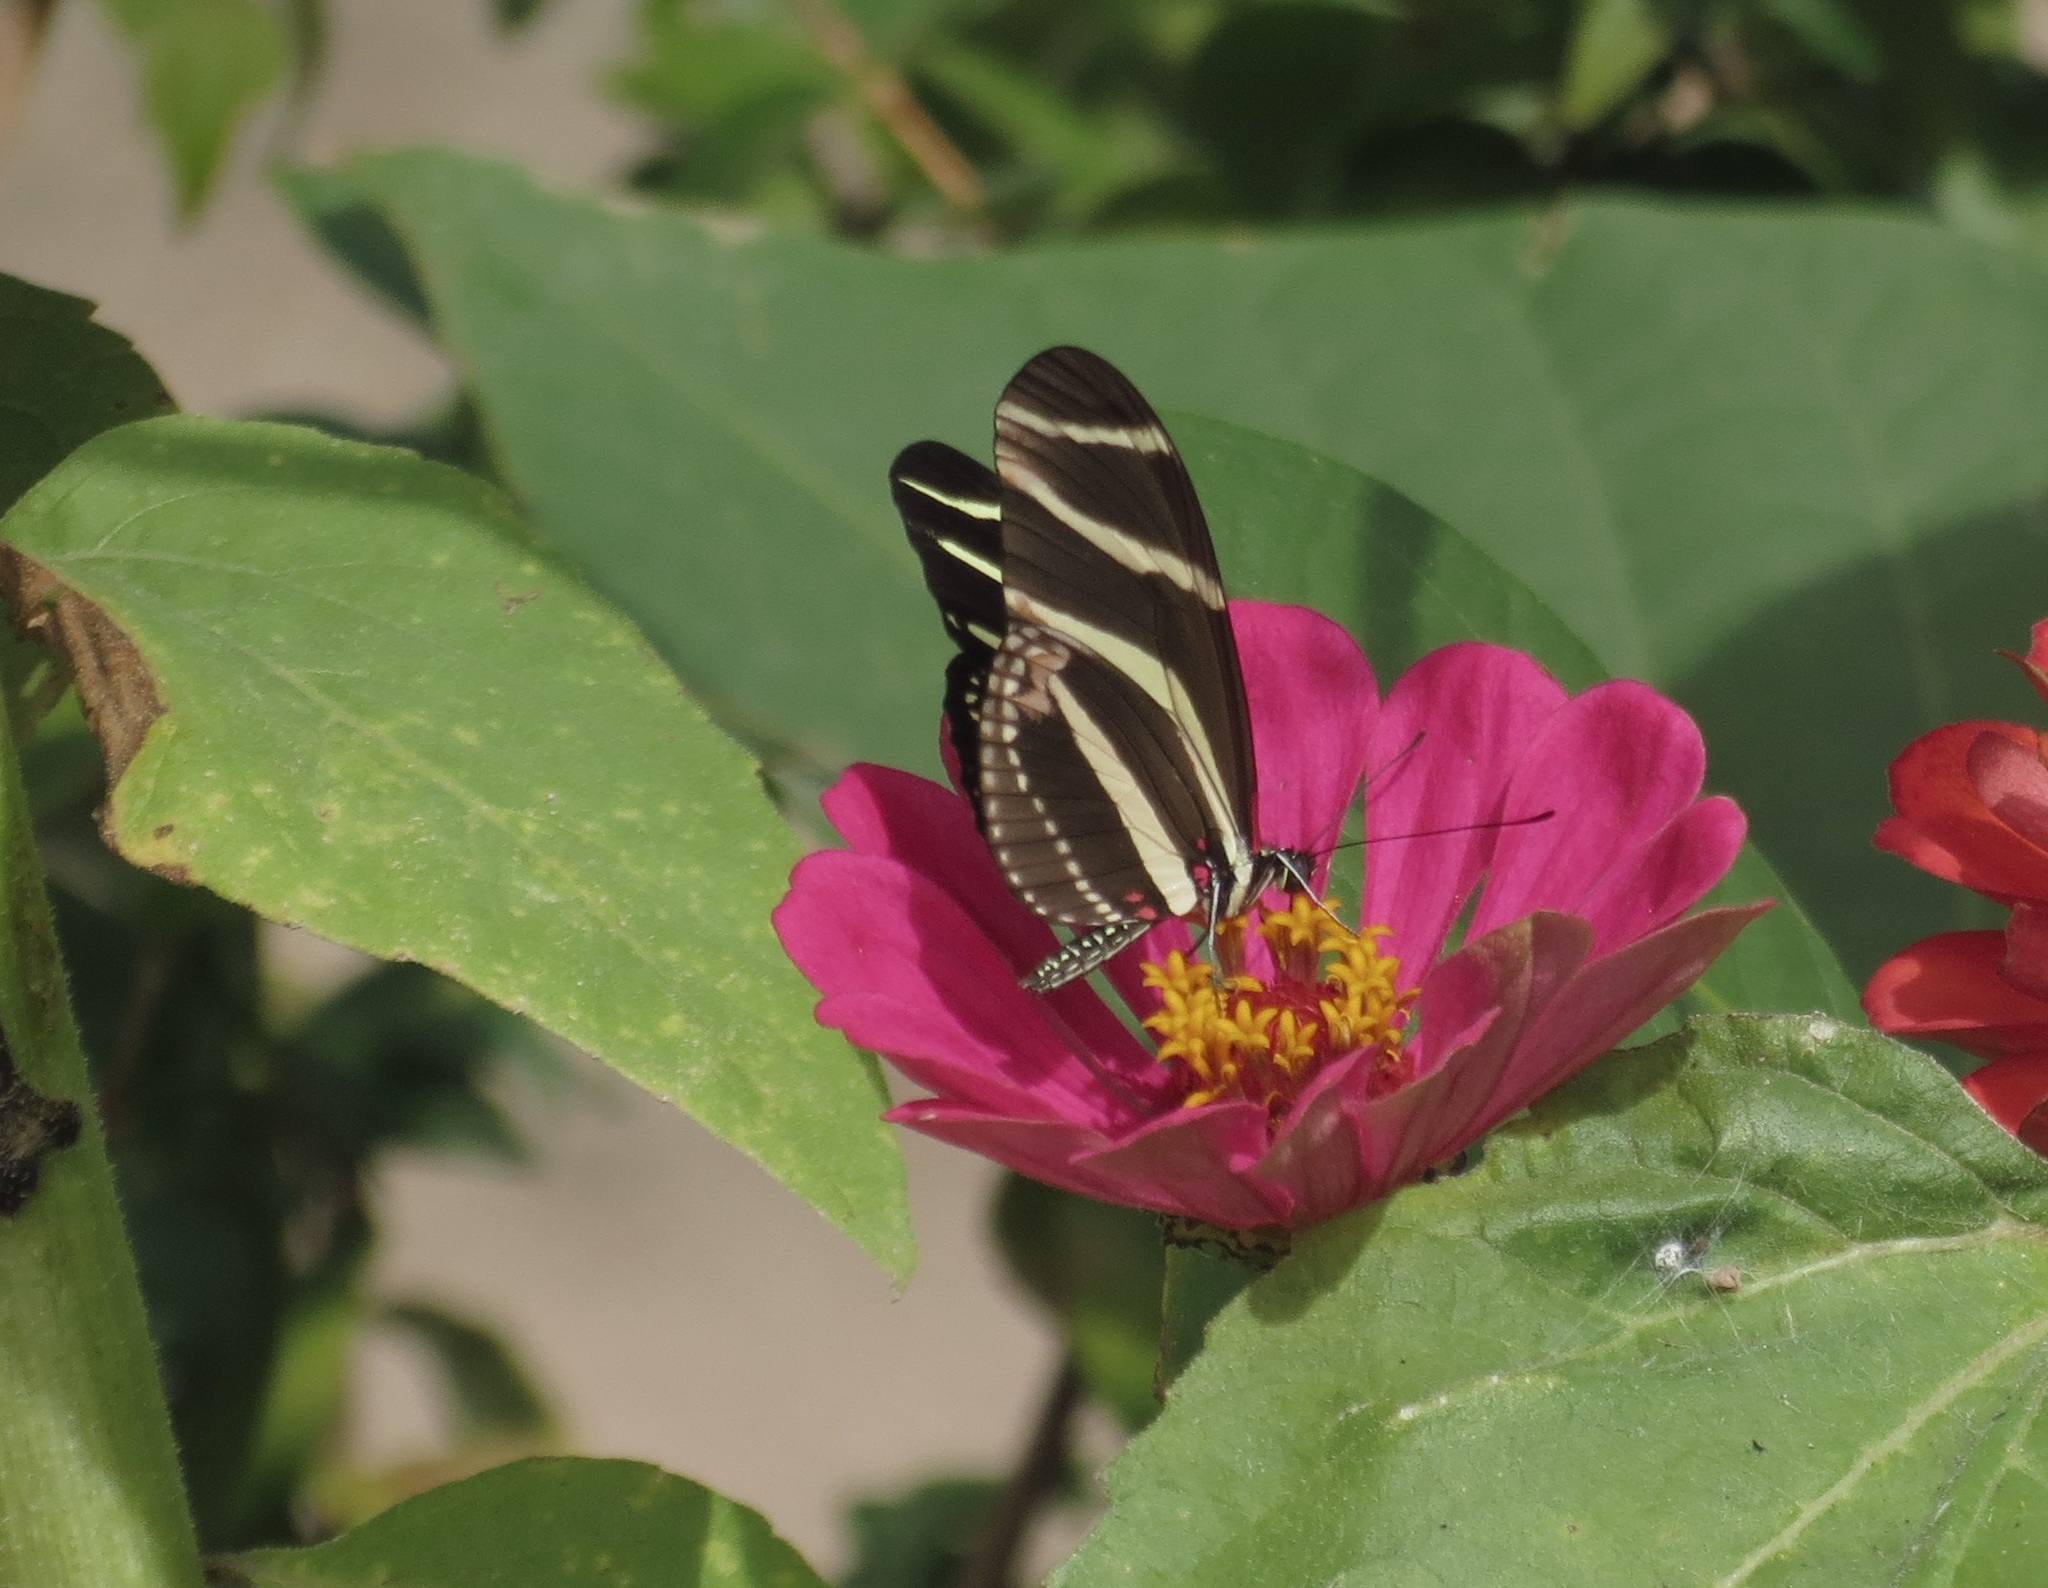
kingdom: Animalia
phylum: Arthropoda
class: Insecta
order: Lepidoptera
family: Nymphalidae
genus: Heliconius
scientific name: Heliconius charithonia
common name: Zebra long wing
